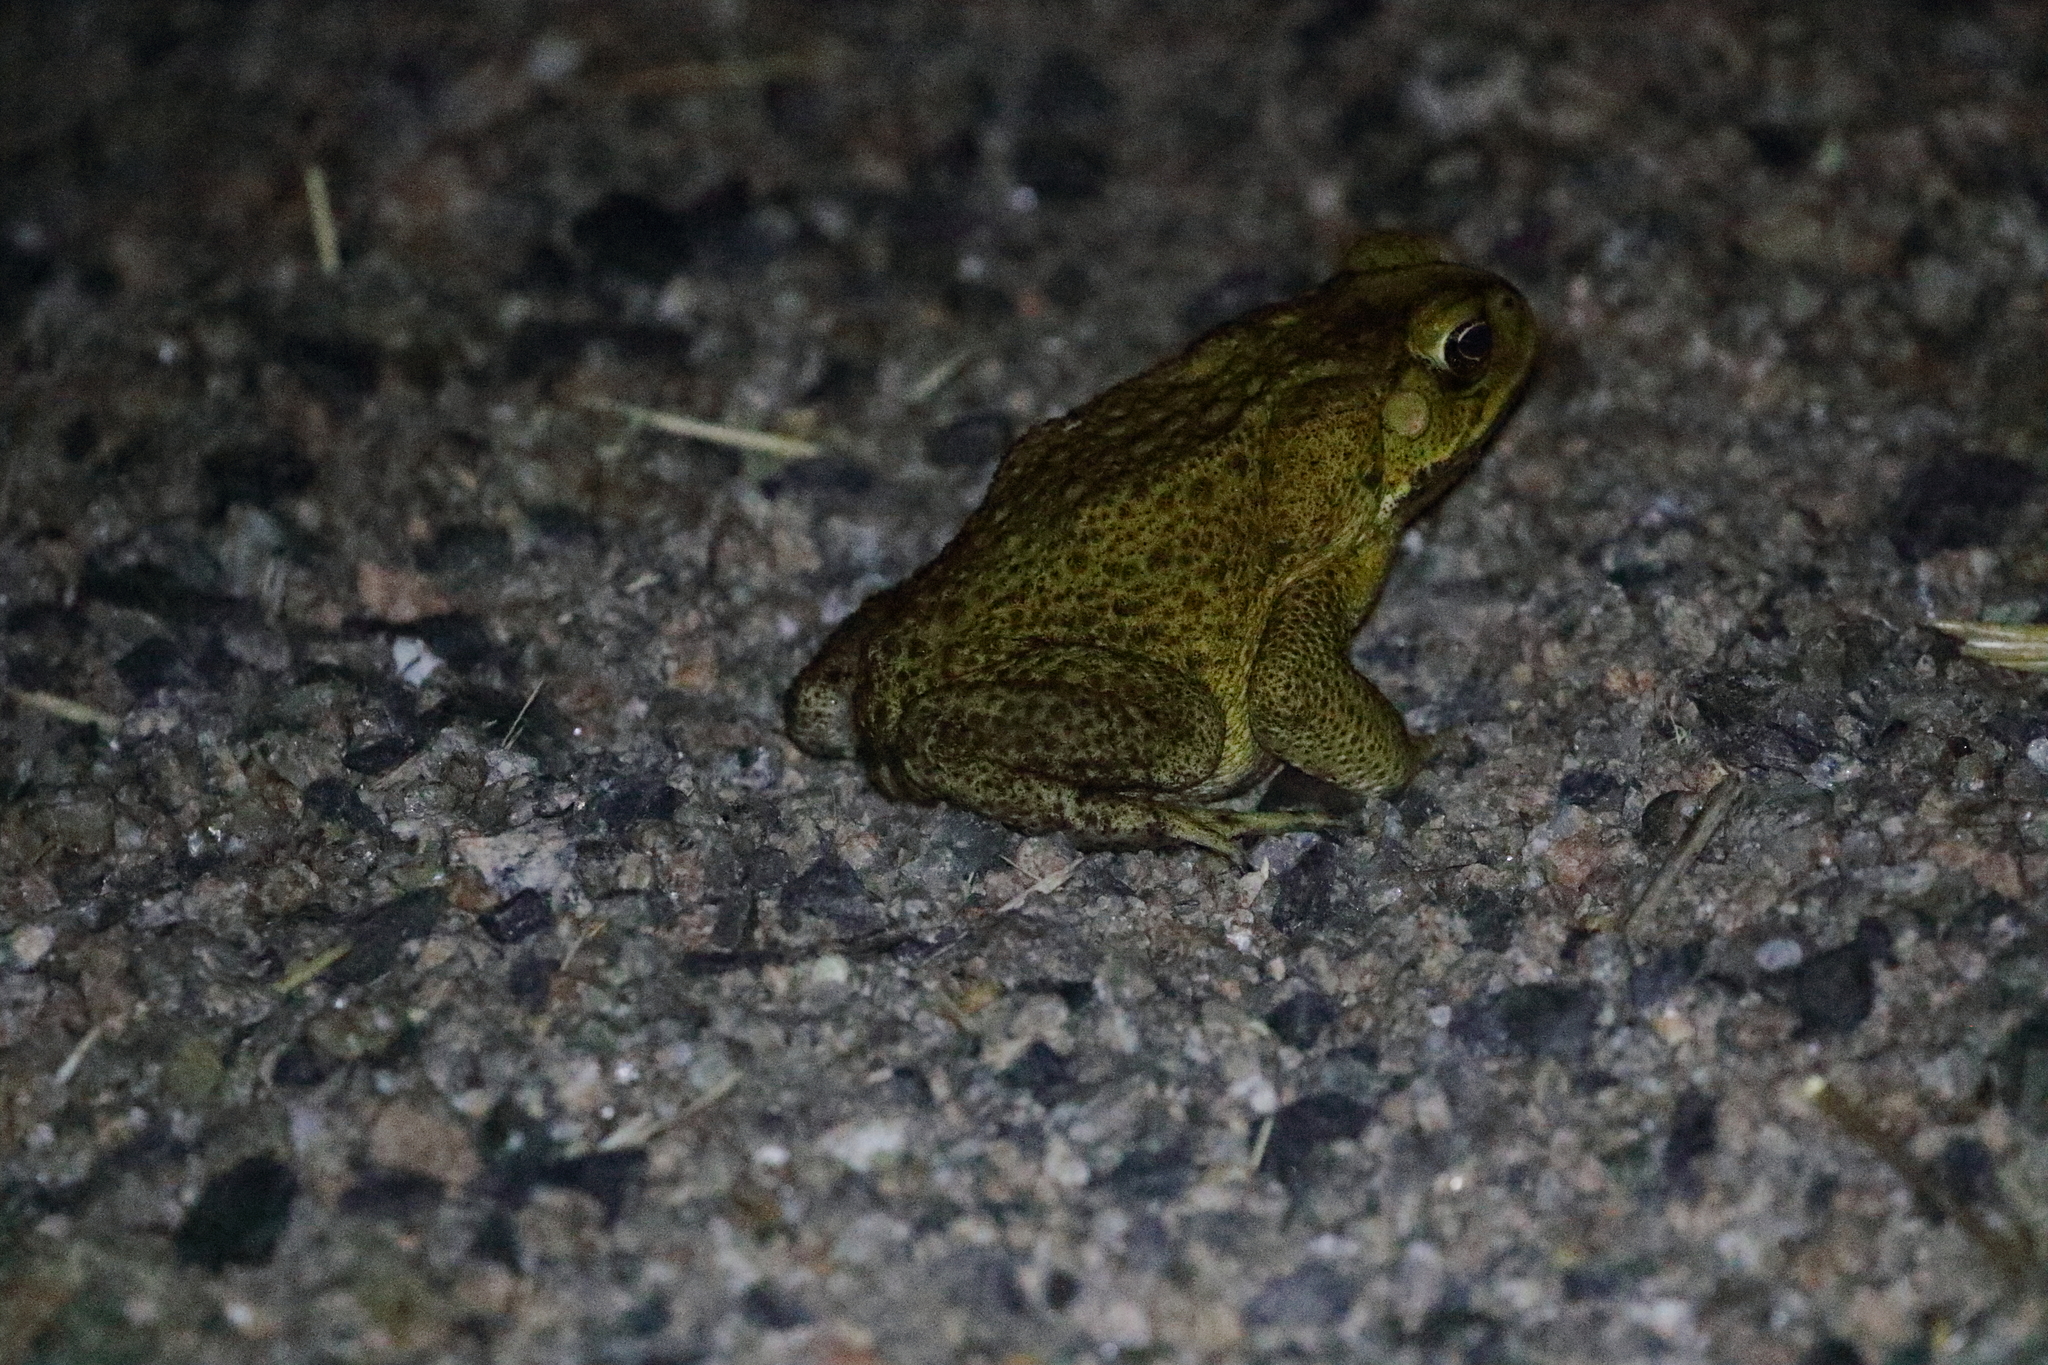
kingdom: Animalia
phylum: Chordata
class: Amphibia
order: Anura
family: Bufonidae
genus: Rhinella
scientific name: Rhinella marina
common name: Cane toad
